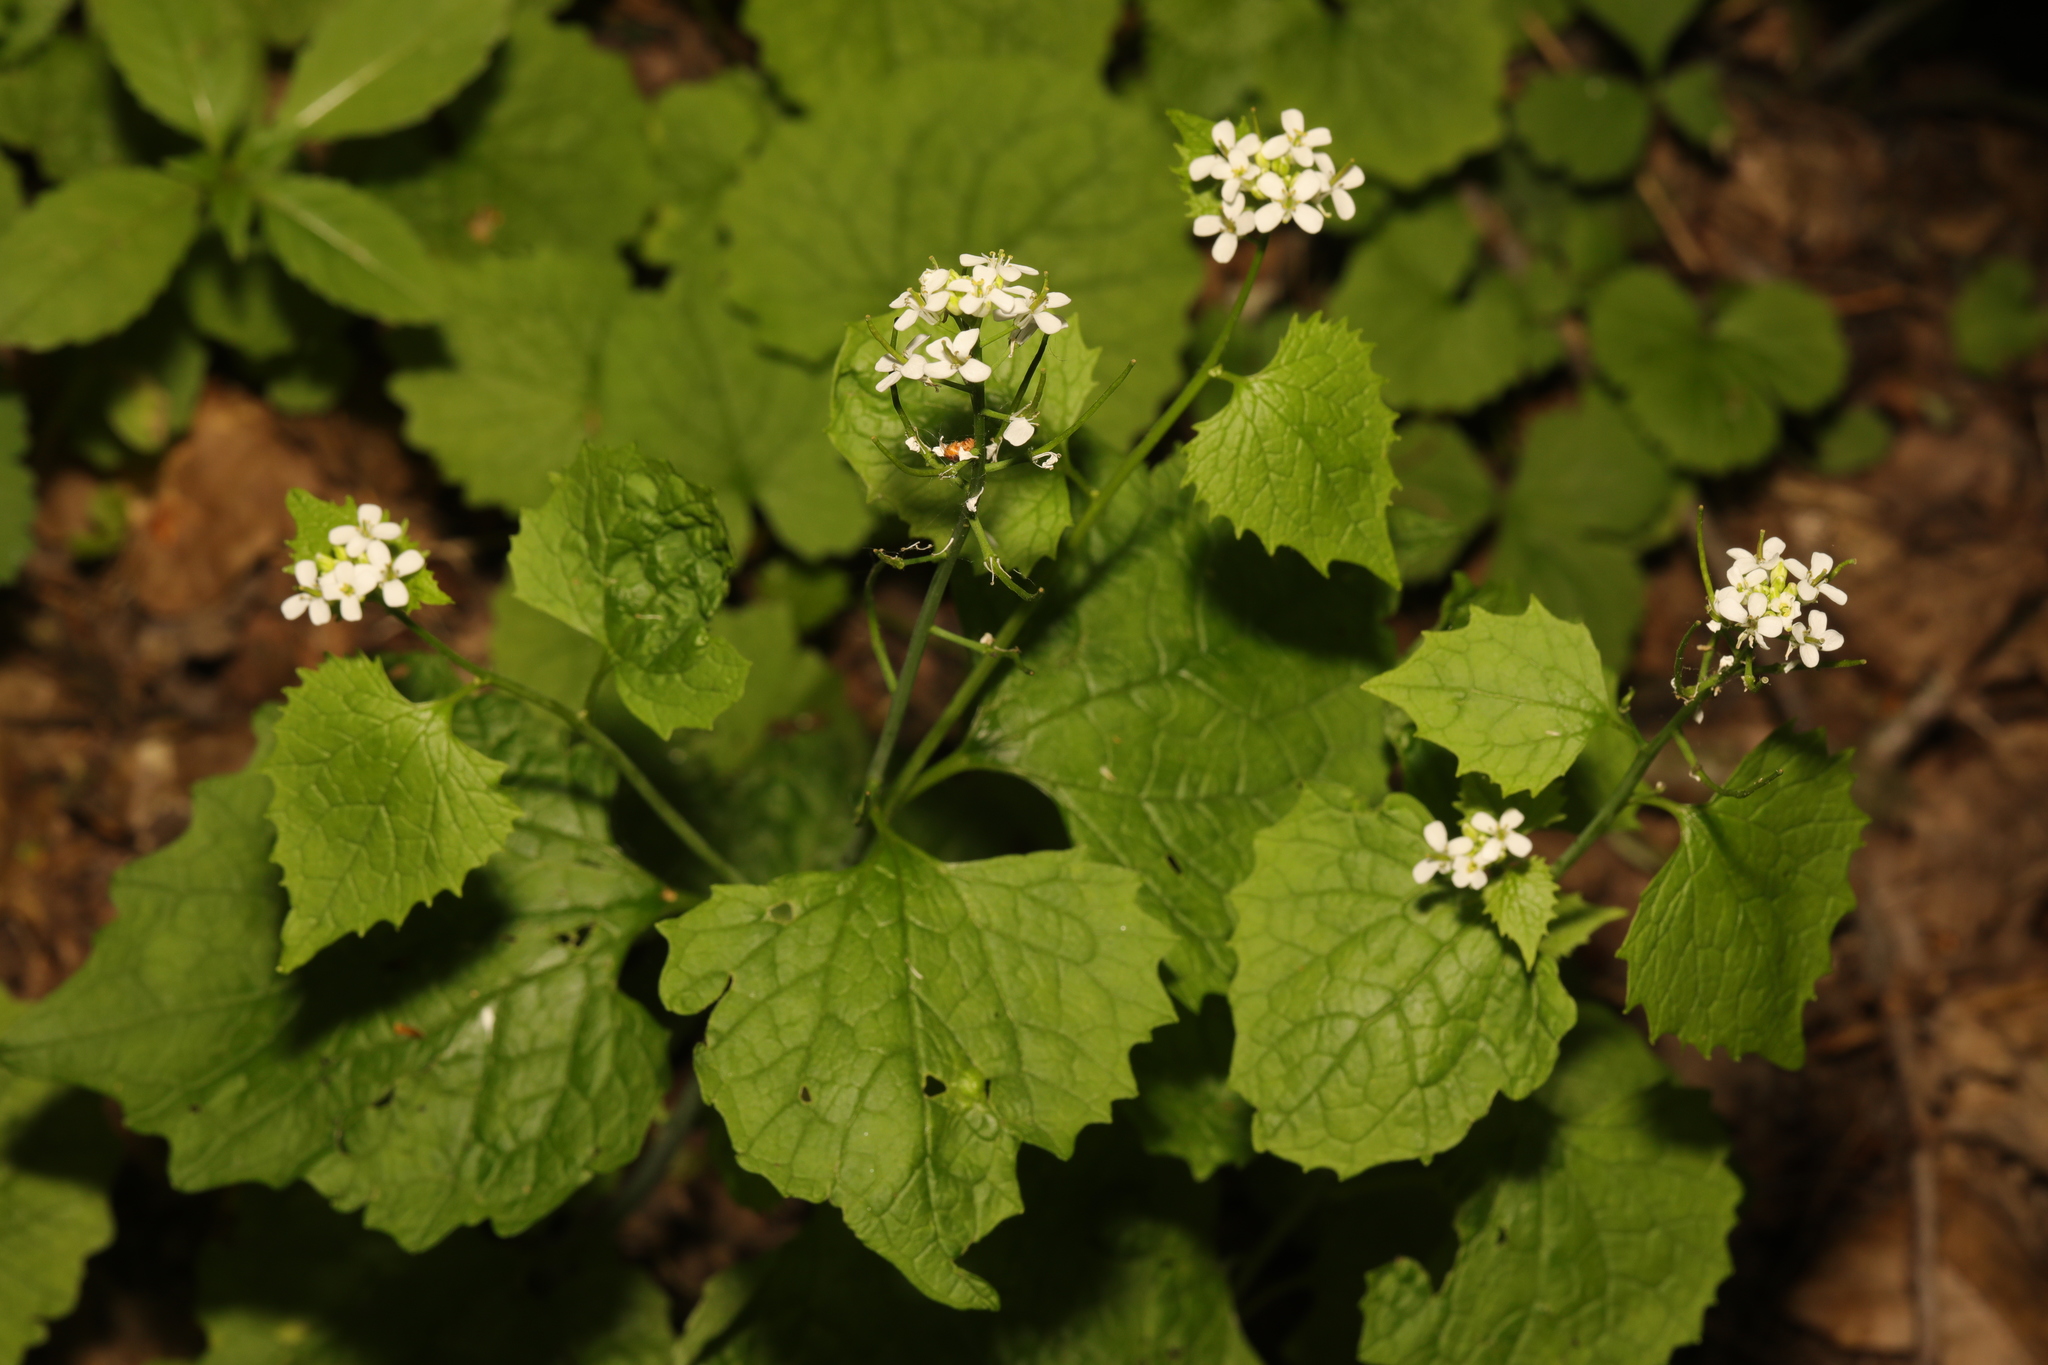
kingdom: Plantae
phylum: Tracheophyta
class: Magnoliopsida
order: Brassicales
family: Brassicaceae
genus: Alliaria
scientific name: Alliaria petiolata
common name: Garlic mustard
